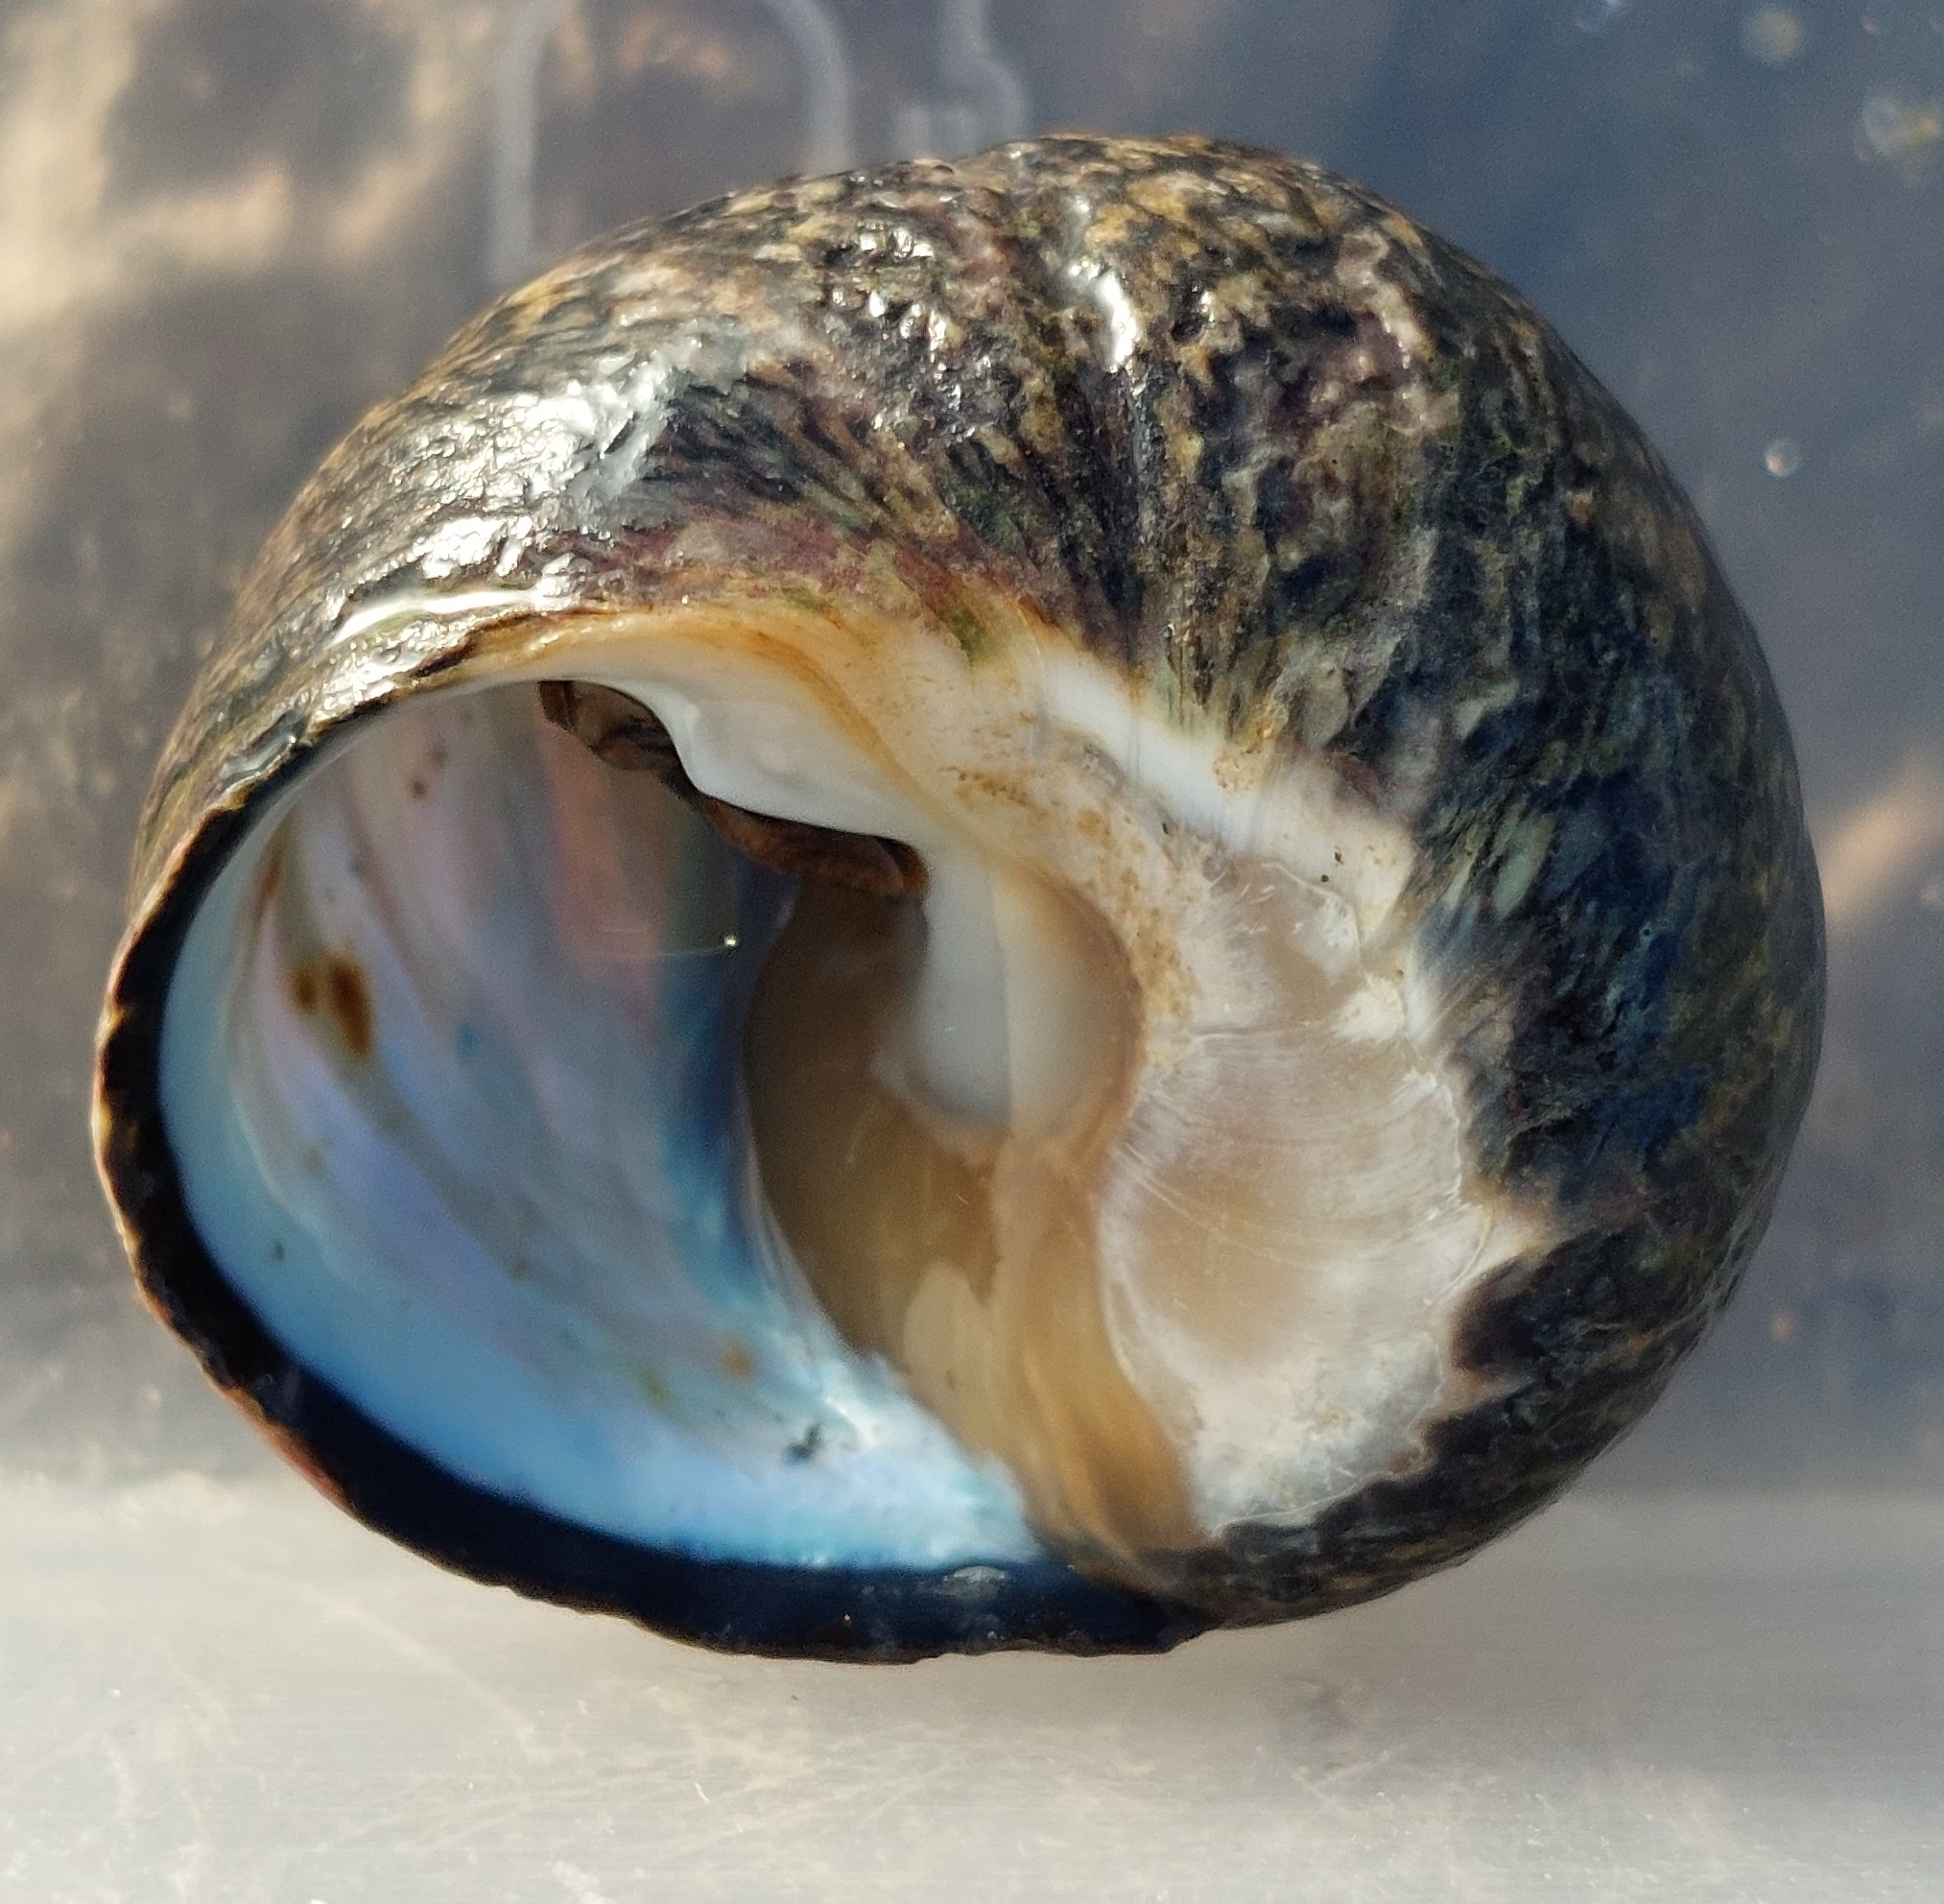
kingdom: Animalia
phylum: Mollusca
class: Gastropoda
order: Trochida
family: Trochidae
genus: Phorcus
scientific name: Phorcus lineatus
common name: Toothed top shell
